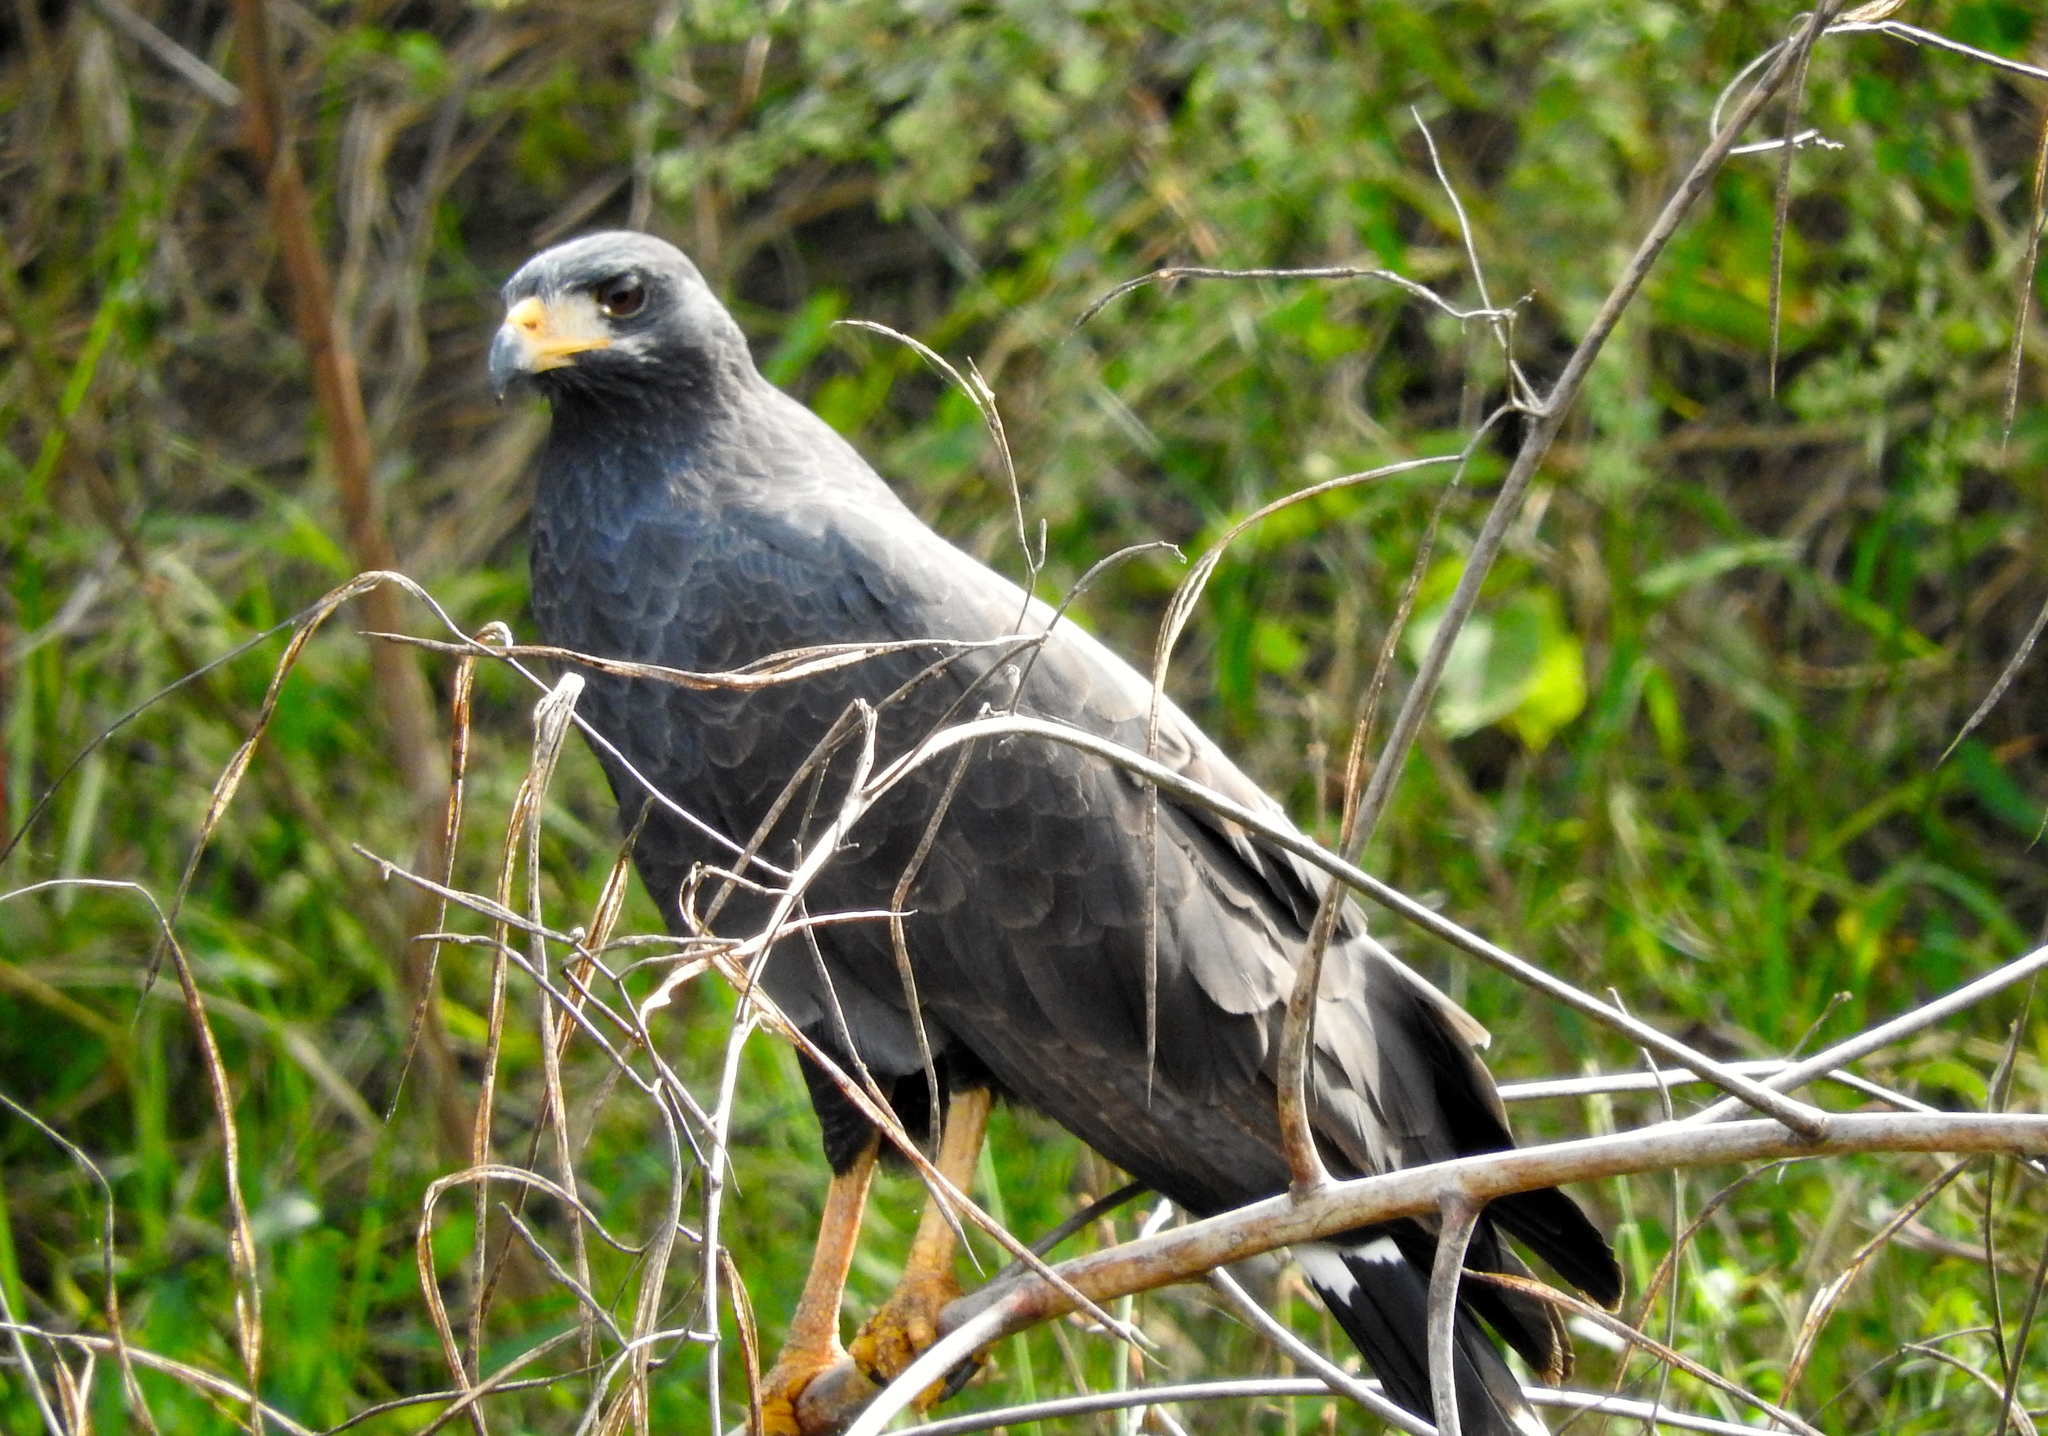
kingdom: Animalia
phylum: Chordata
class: Aves
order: Accipitriformes
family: Accipitridae
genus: Buteogallus
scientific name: Buteogallus anthracinus
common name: Common black hawk
